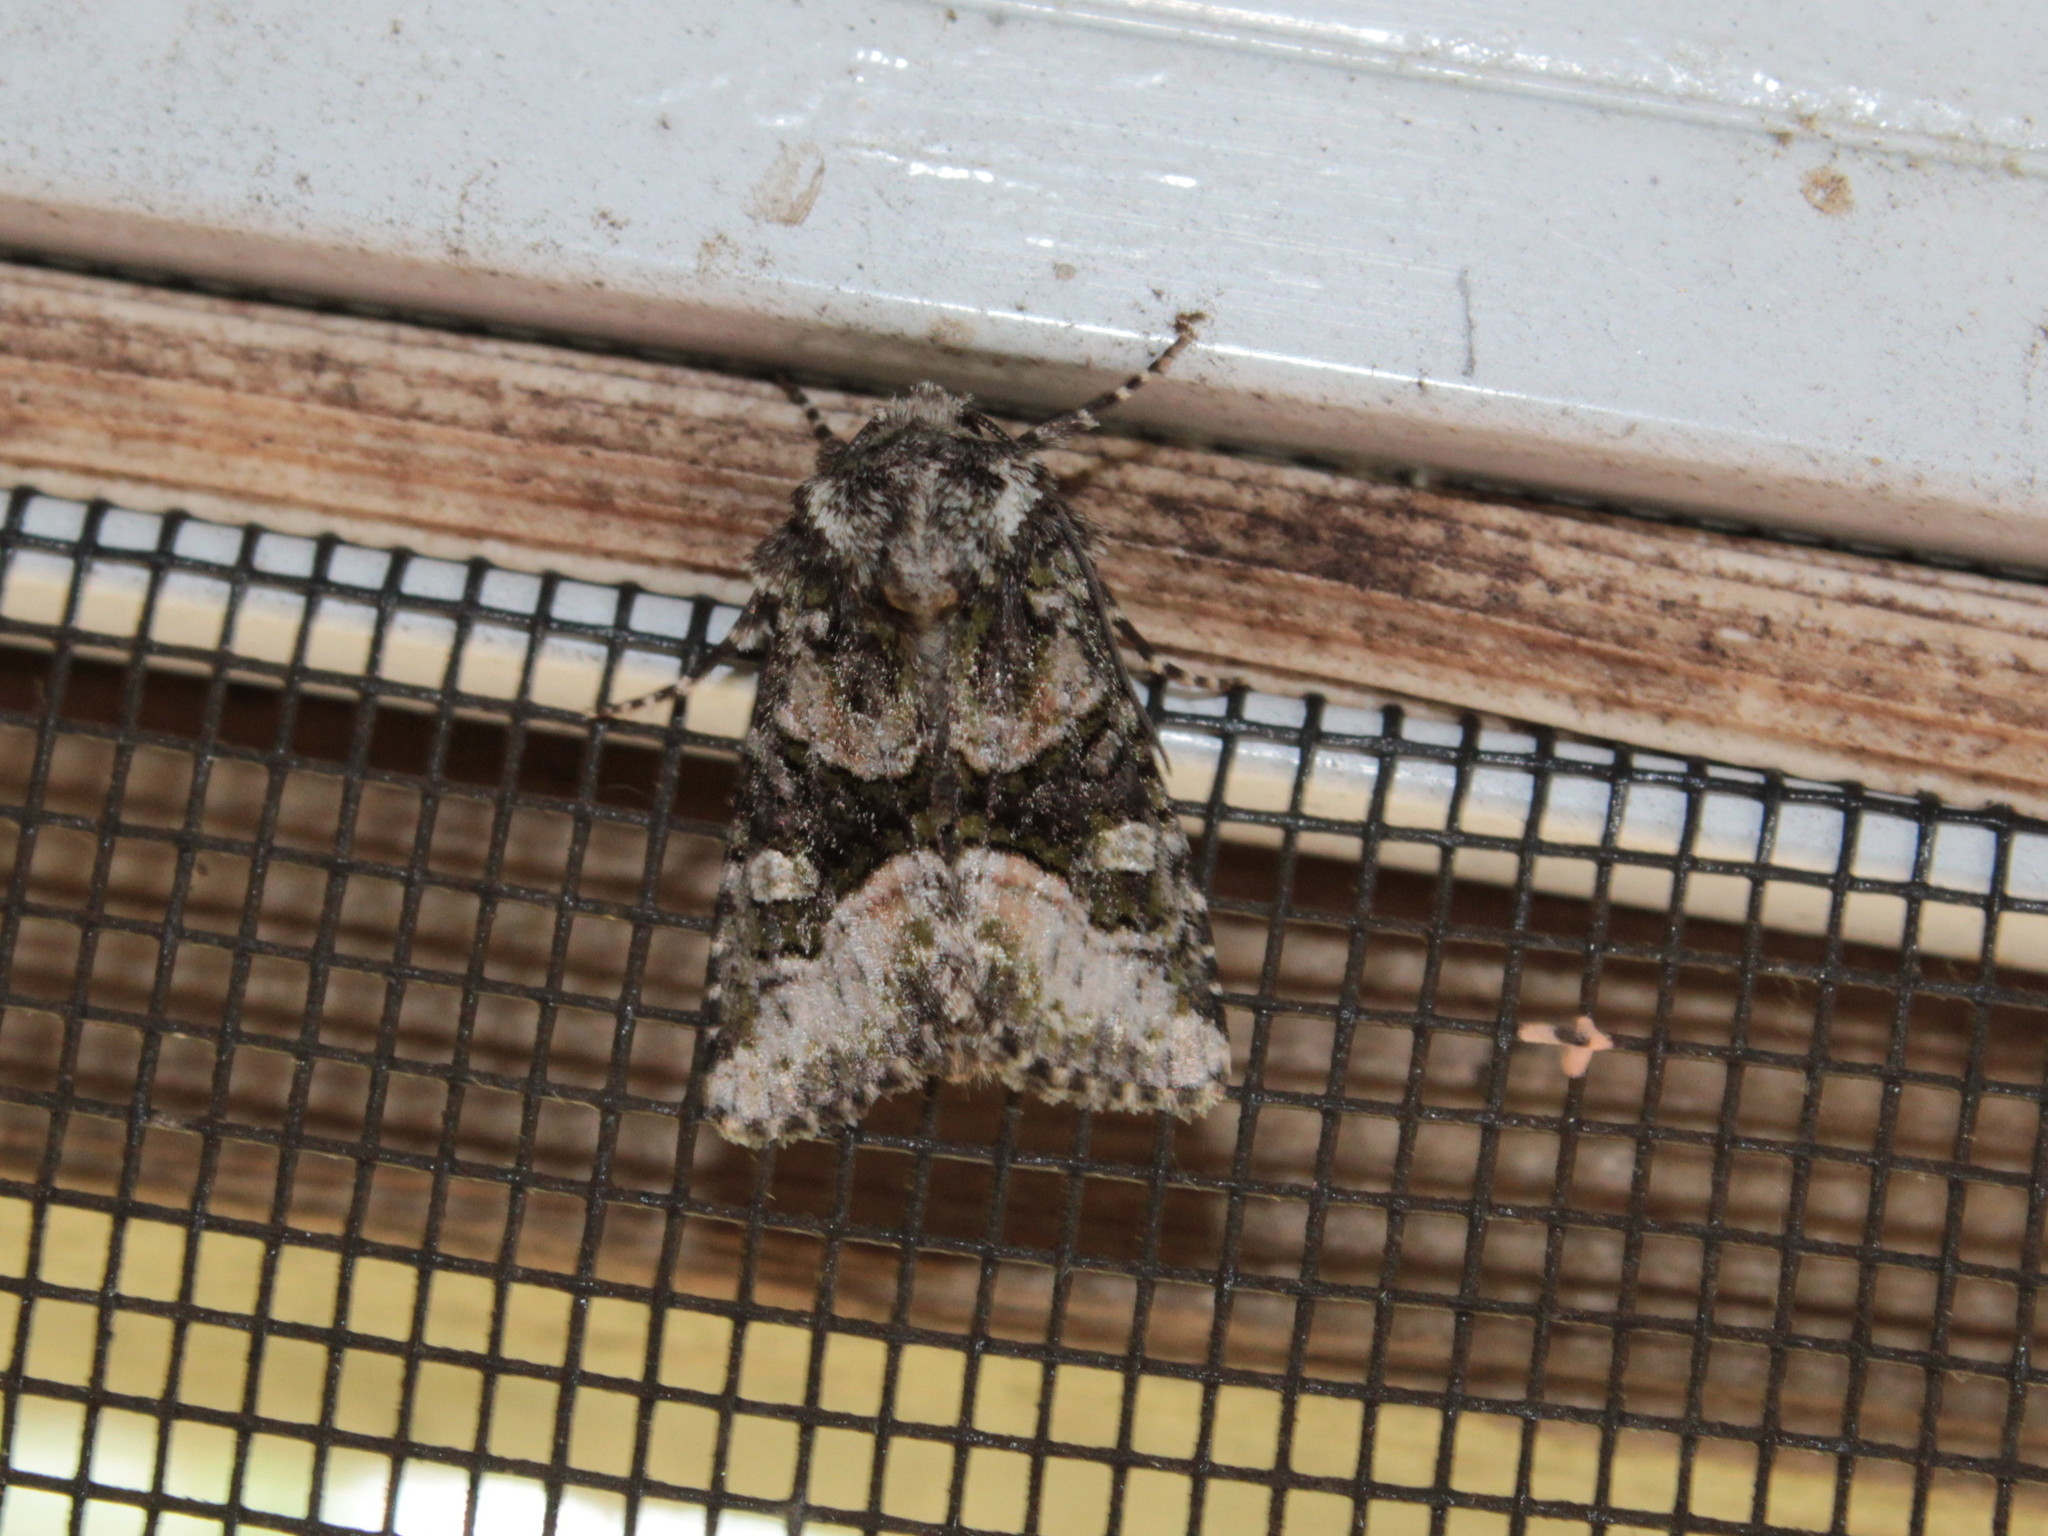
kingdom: Animalia
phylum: Arthropoda
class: Insecta
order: Lepidoptera
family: Noctuidae
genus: Lacinipolia
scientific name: Lacinipolia olivacea
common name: Olive arches moth
